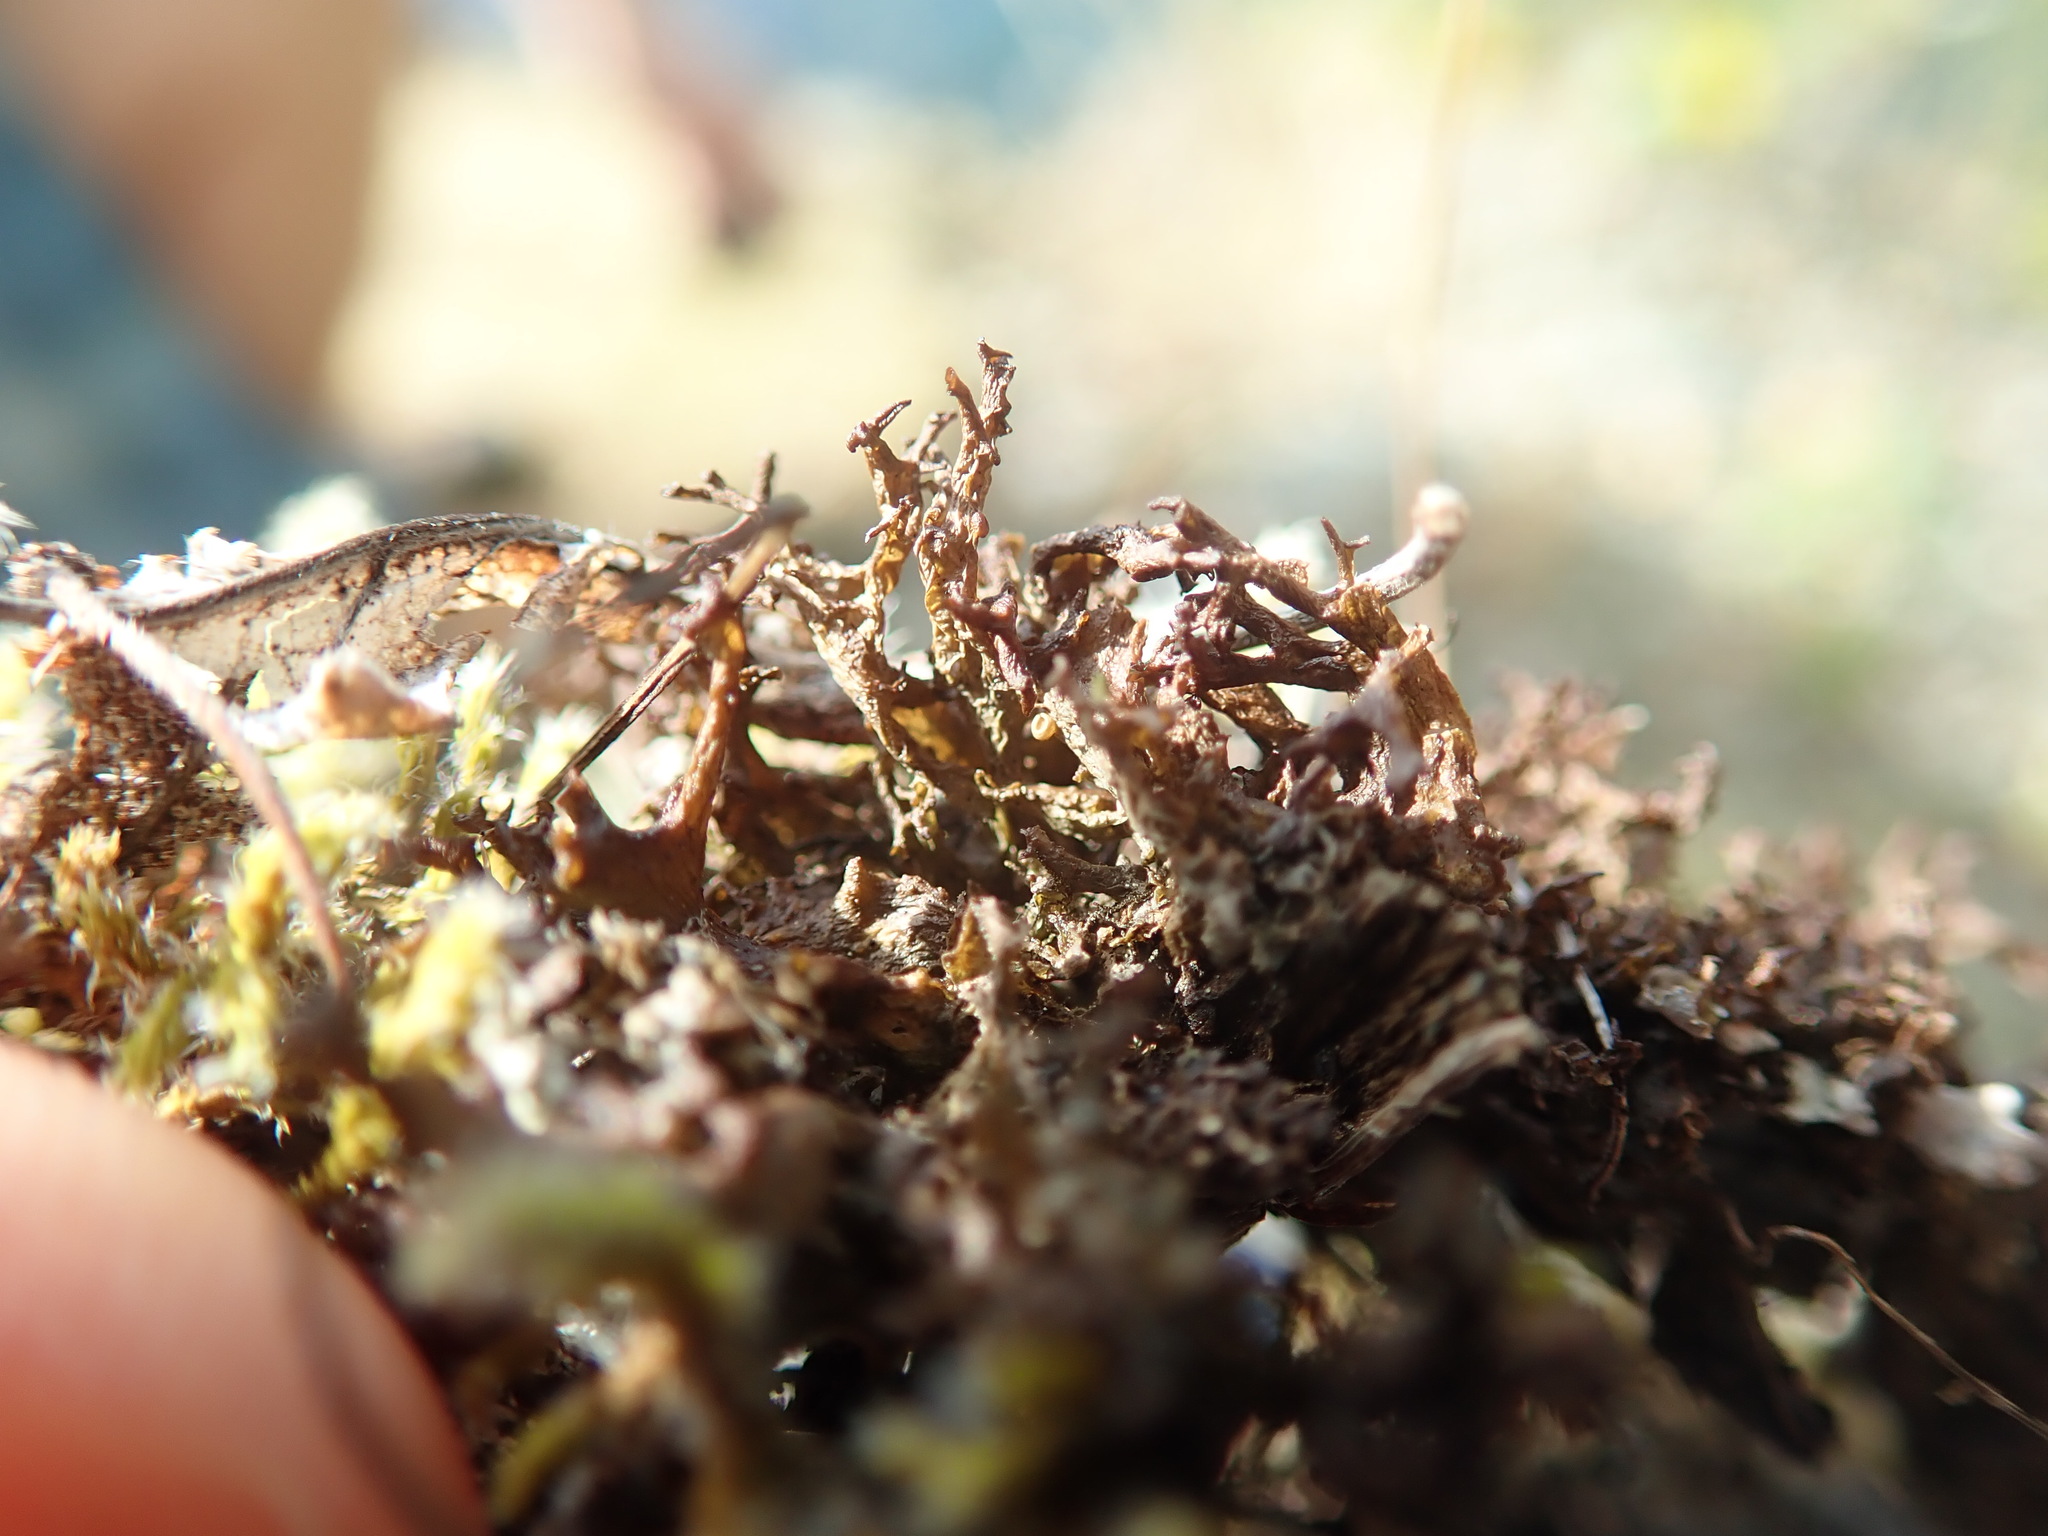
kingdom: Fungi
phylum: Ascomycota
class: Lecanoromycetes
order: Peltigerales
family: Collemataceae
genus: Scytinium
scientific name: Scytinium palmatum
